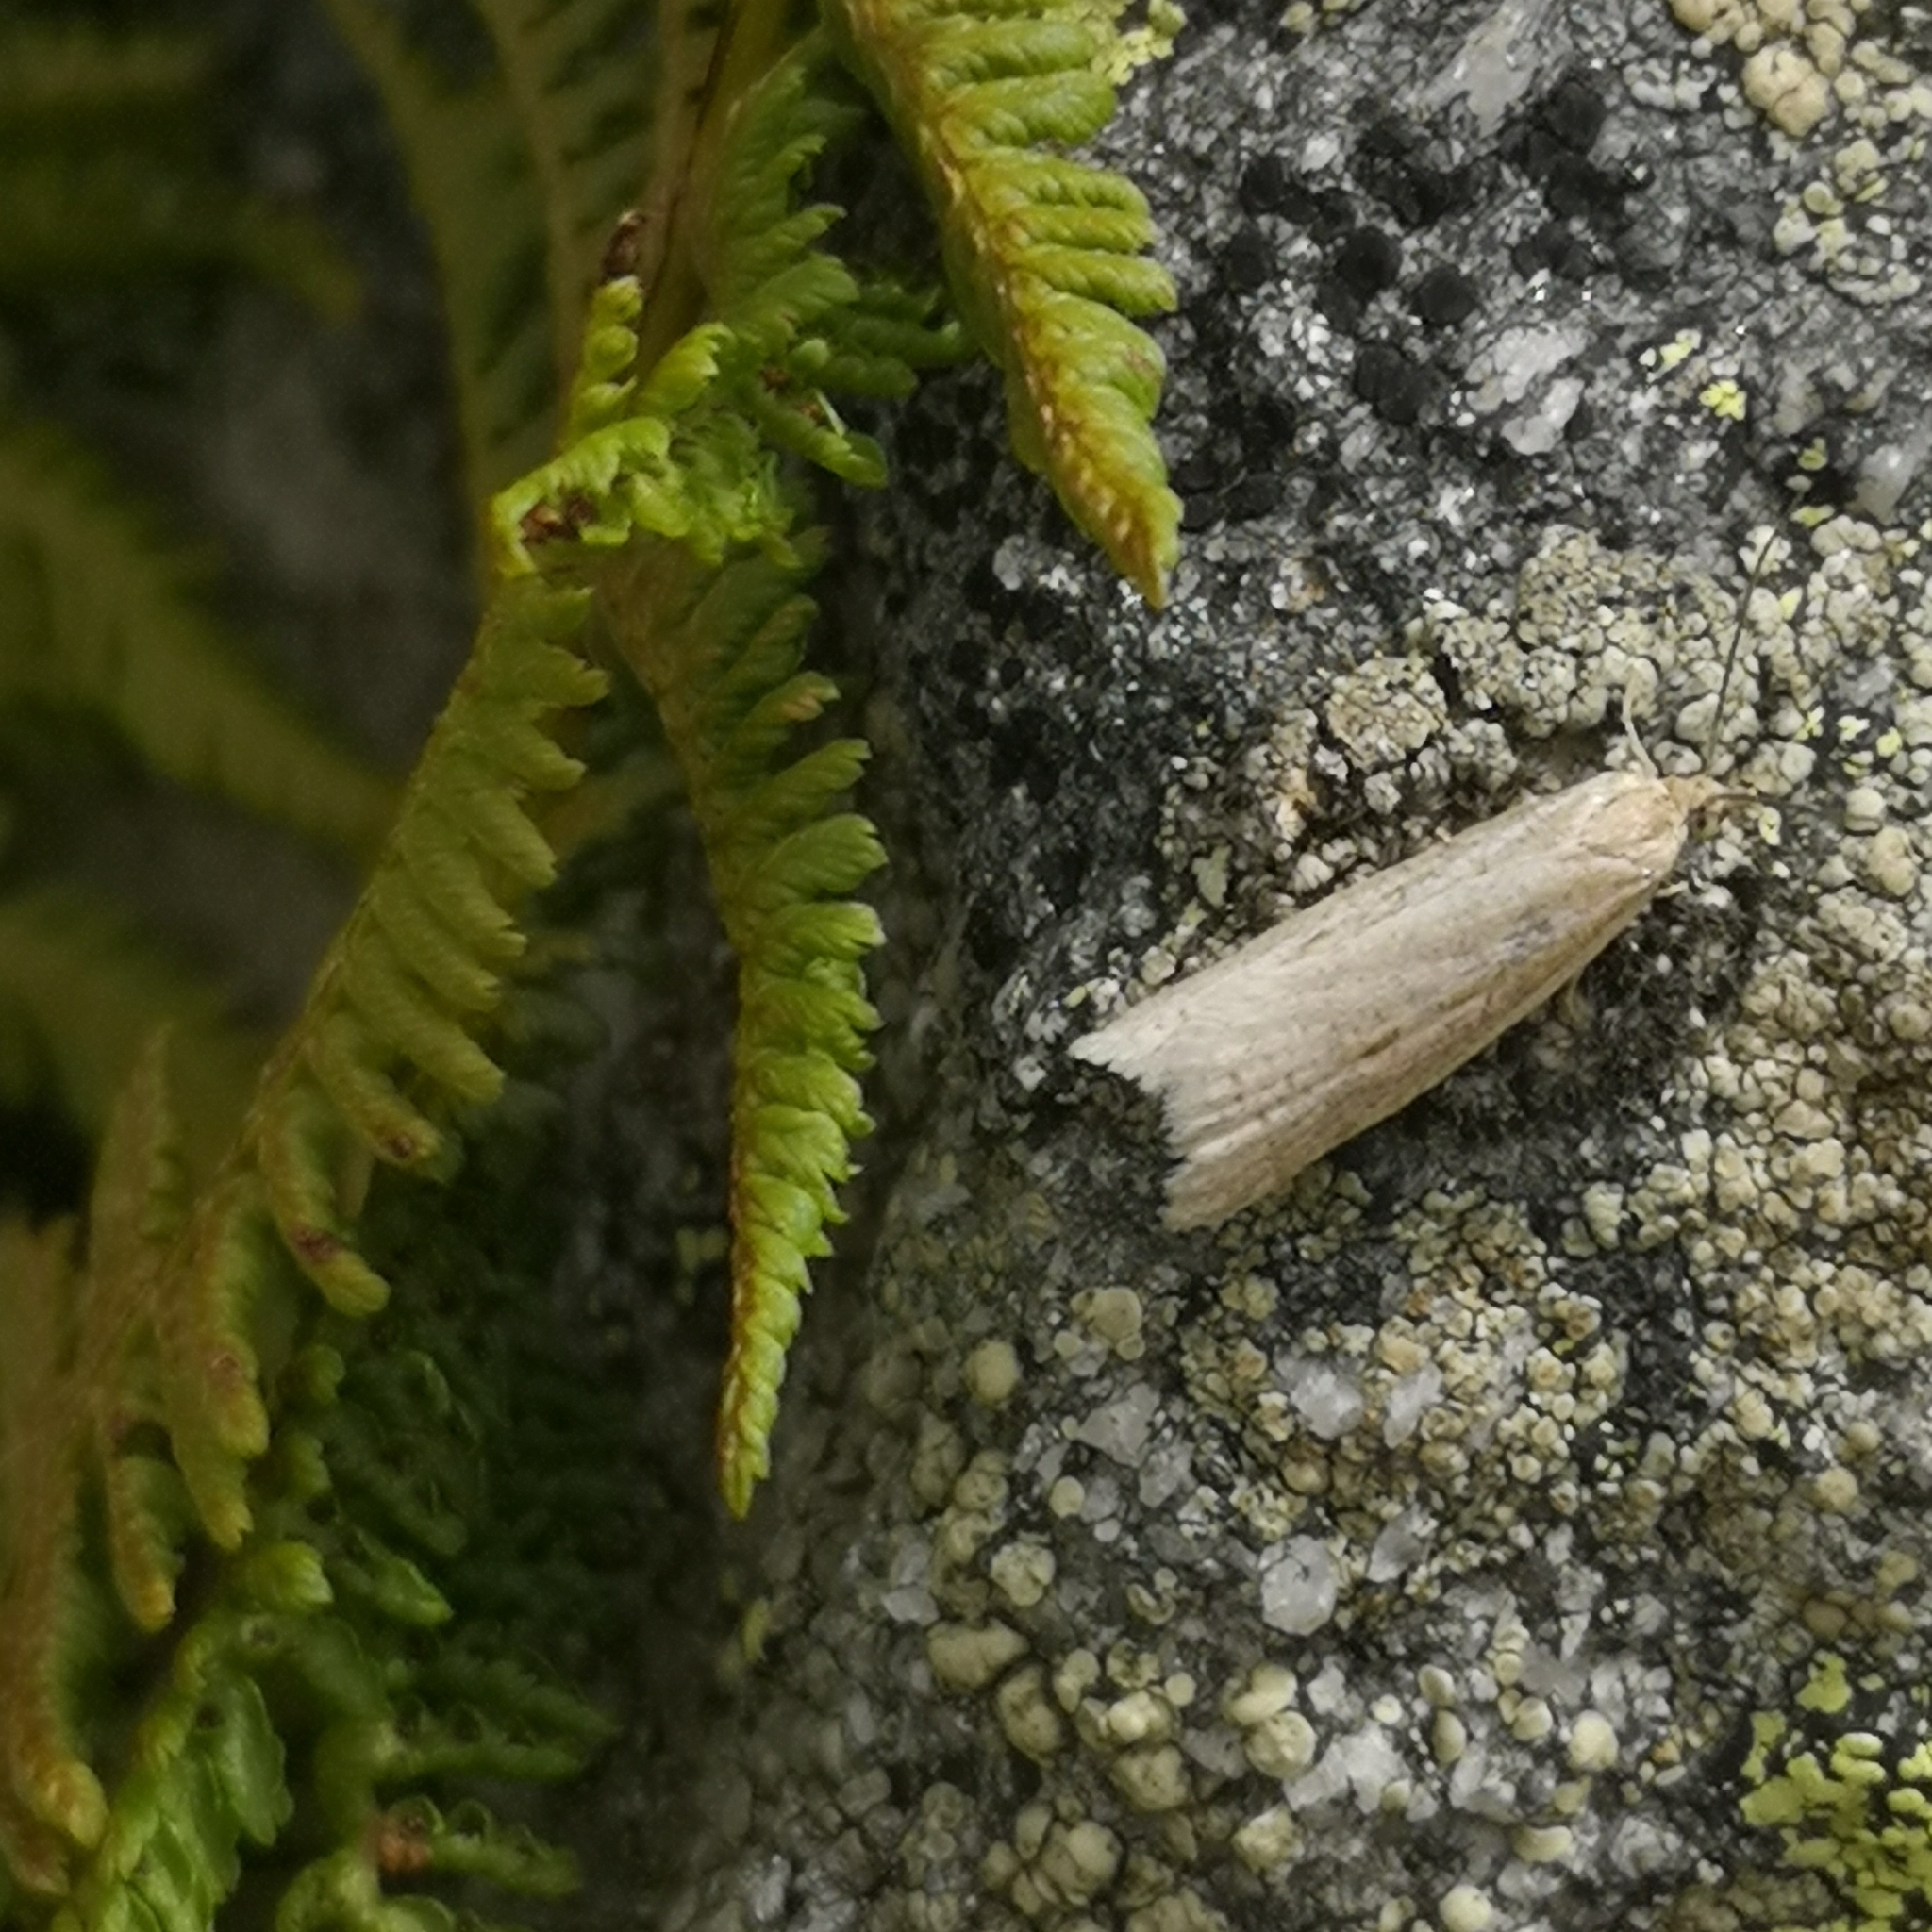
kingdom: Animalia
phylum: Arthropoda
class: Insecta
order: Lepidoptera
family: Tortricidae
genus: Eana
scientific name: Eana osseana
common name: Dotted shade
